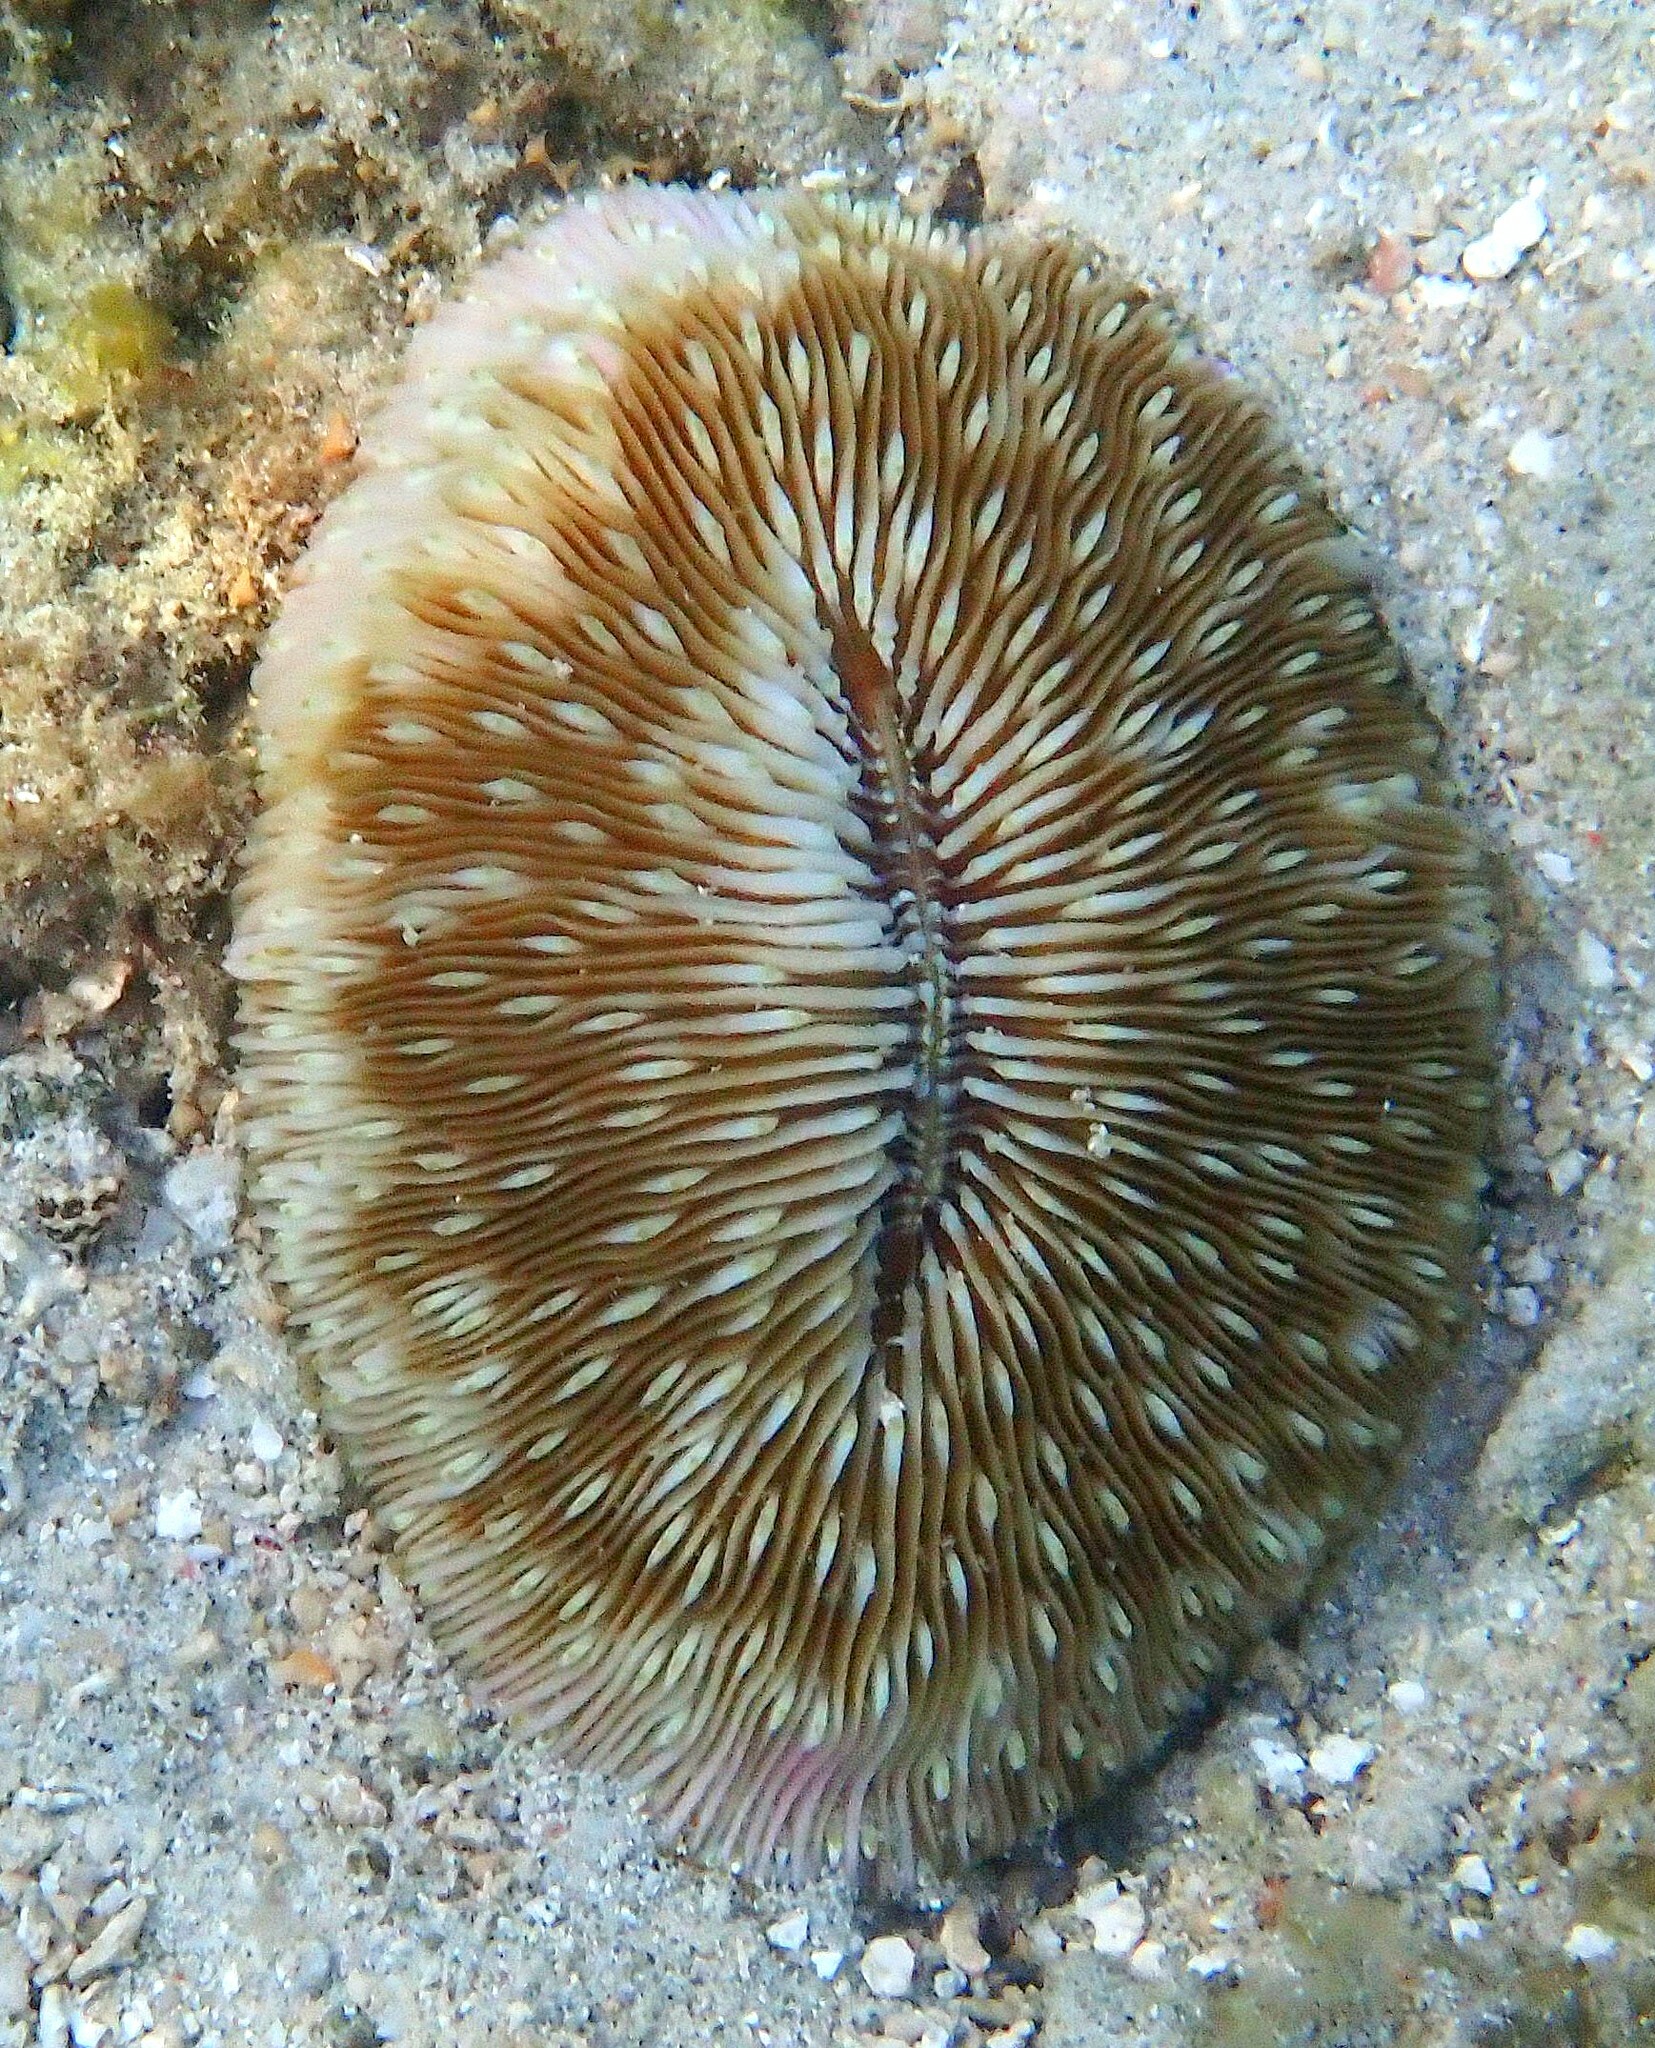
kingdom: Animalia
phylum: Cnidaria
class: Anthozoa
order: Scleractinia
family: Fungiidae
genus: Lobactis
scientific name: Lobactis scutaria
